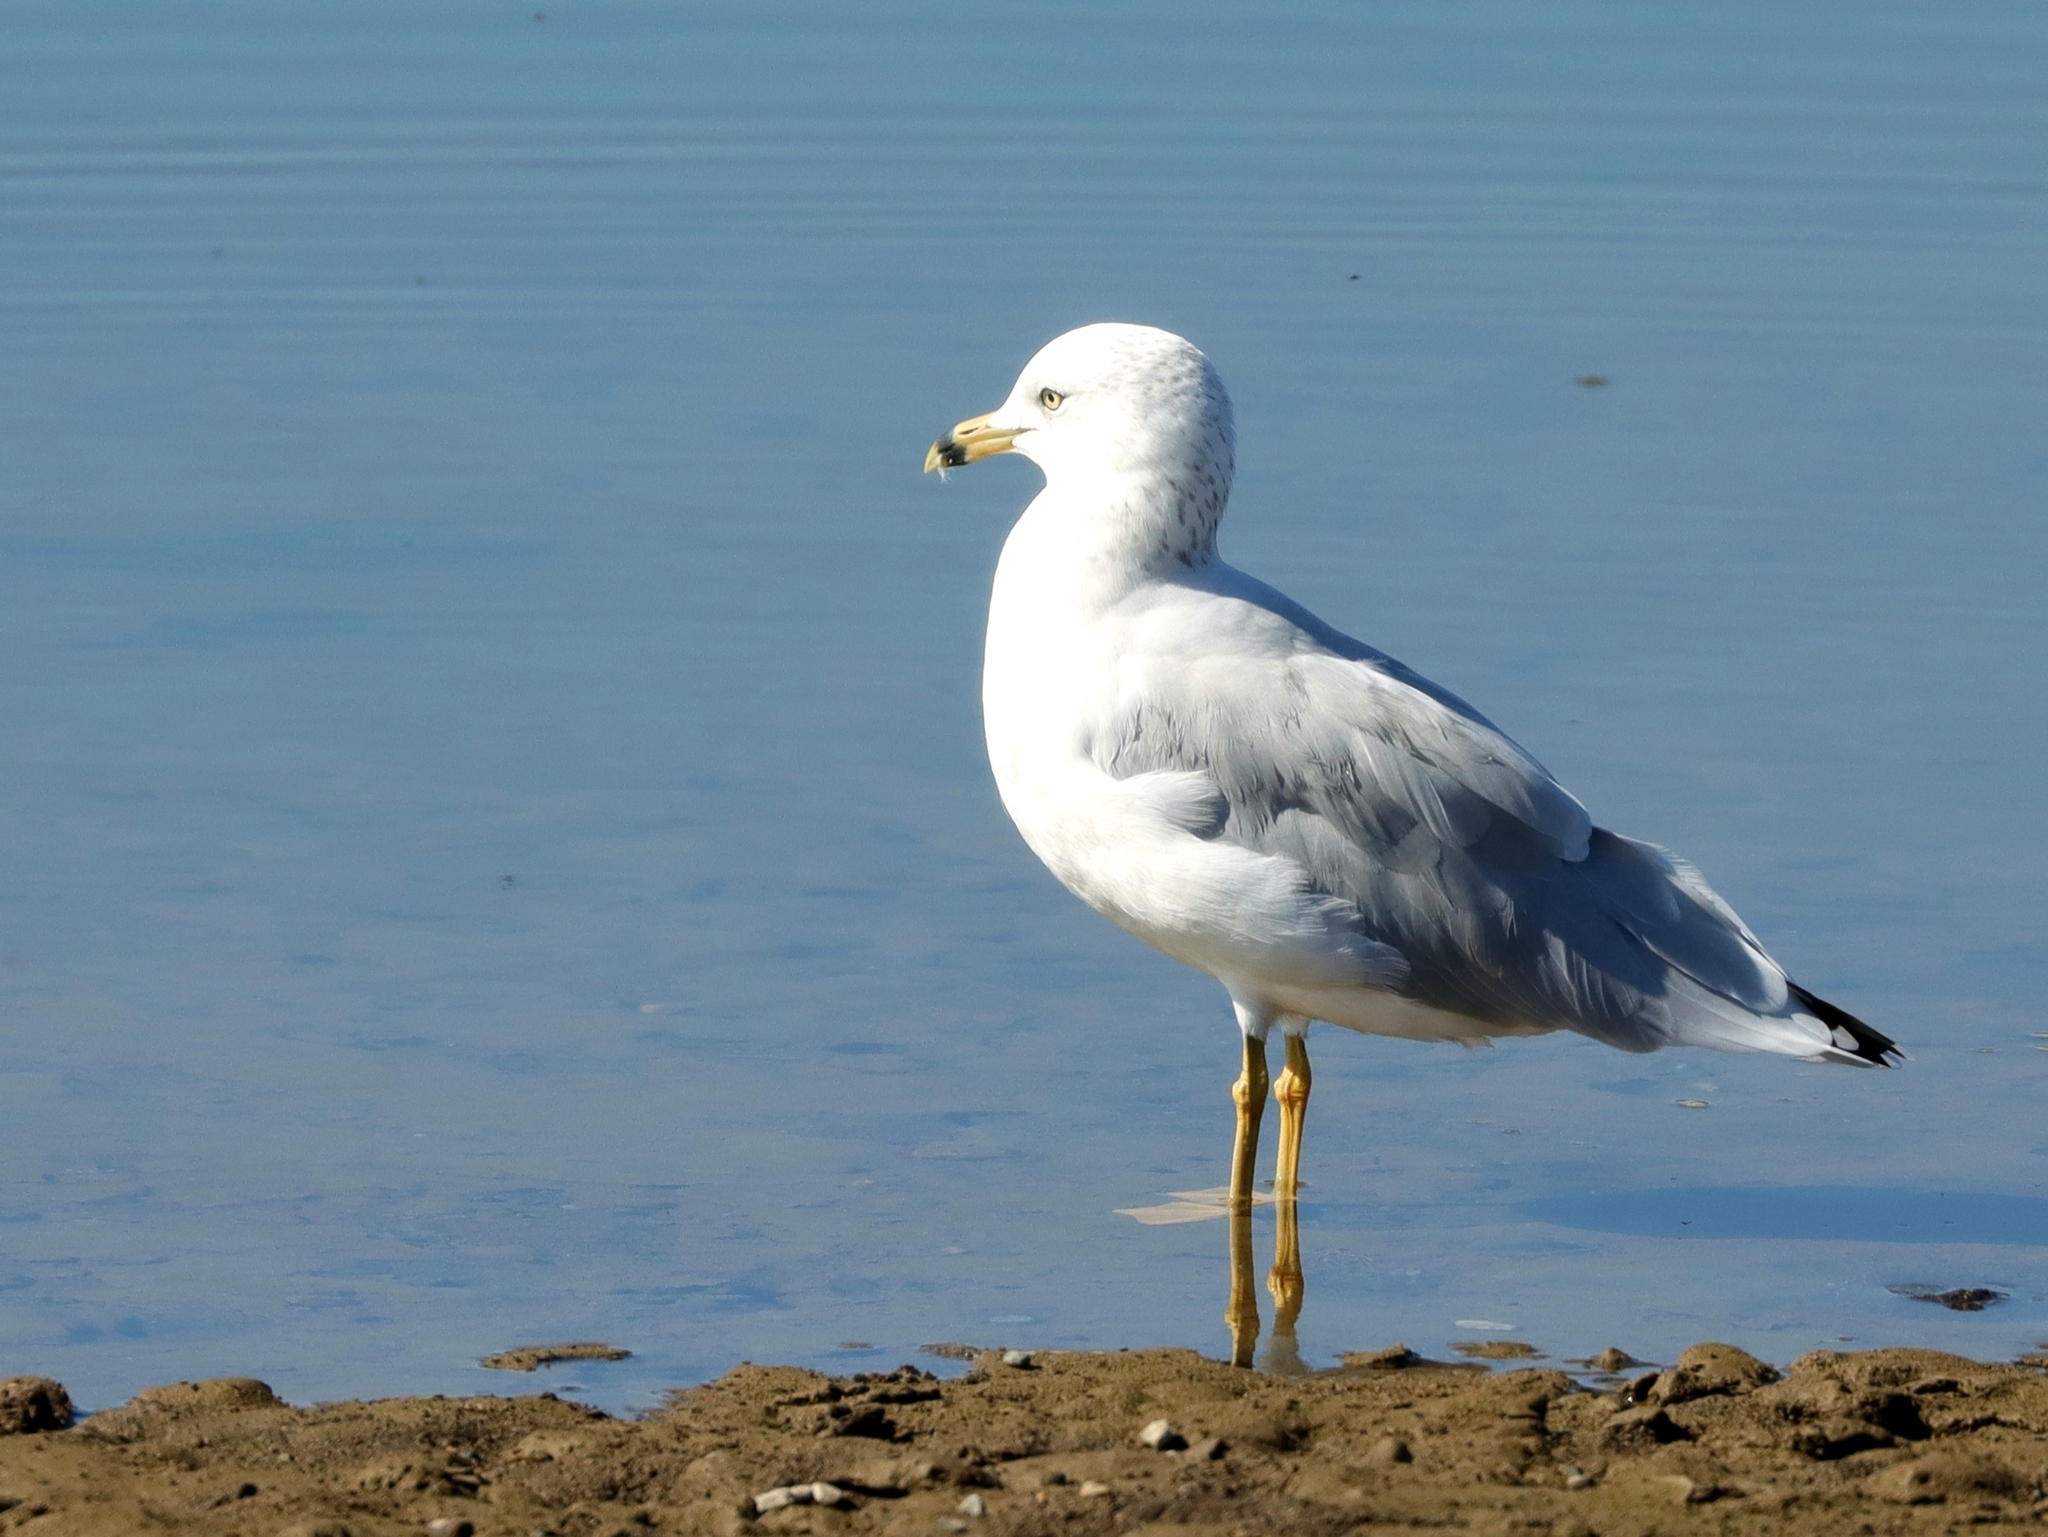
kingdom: Animalia
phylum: Chordata
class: Aves
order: Charadriiformes
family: Laridae
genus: Larus
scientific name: Larus delawarensis
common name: Ring-billed gull
